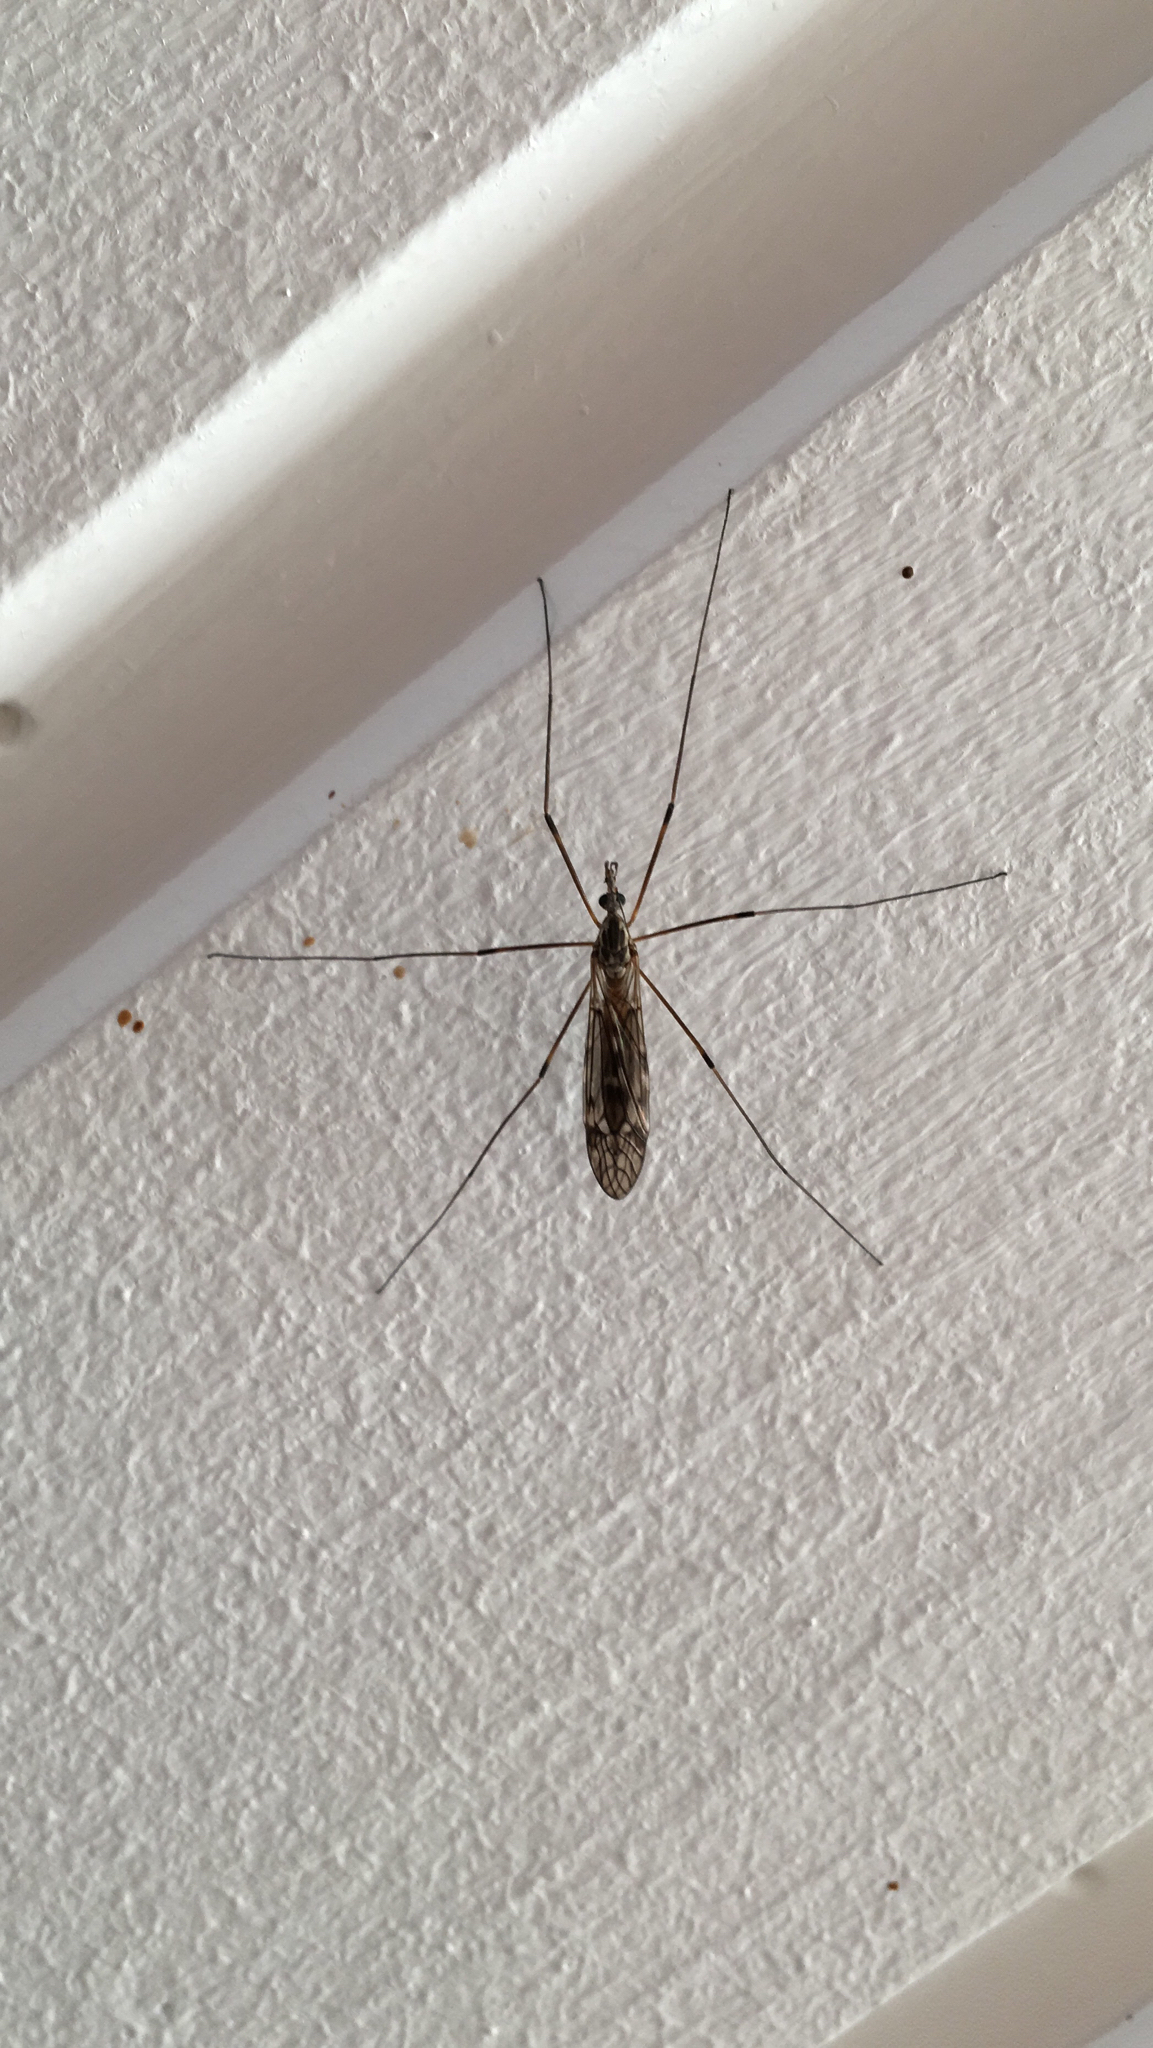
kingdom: Animalia
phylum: Arthropoda
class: Insecta
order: Diptera
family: Tipulidae
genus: Tipula
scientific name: Tipula confusa
